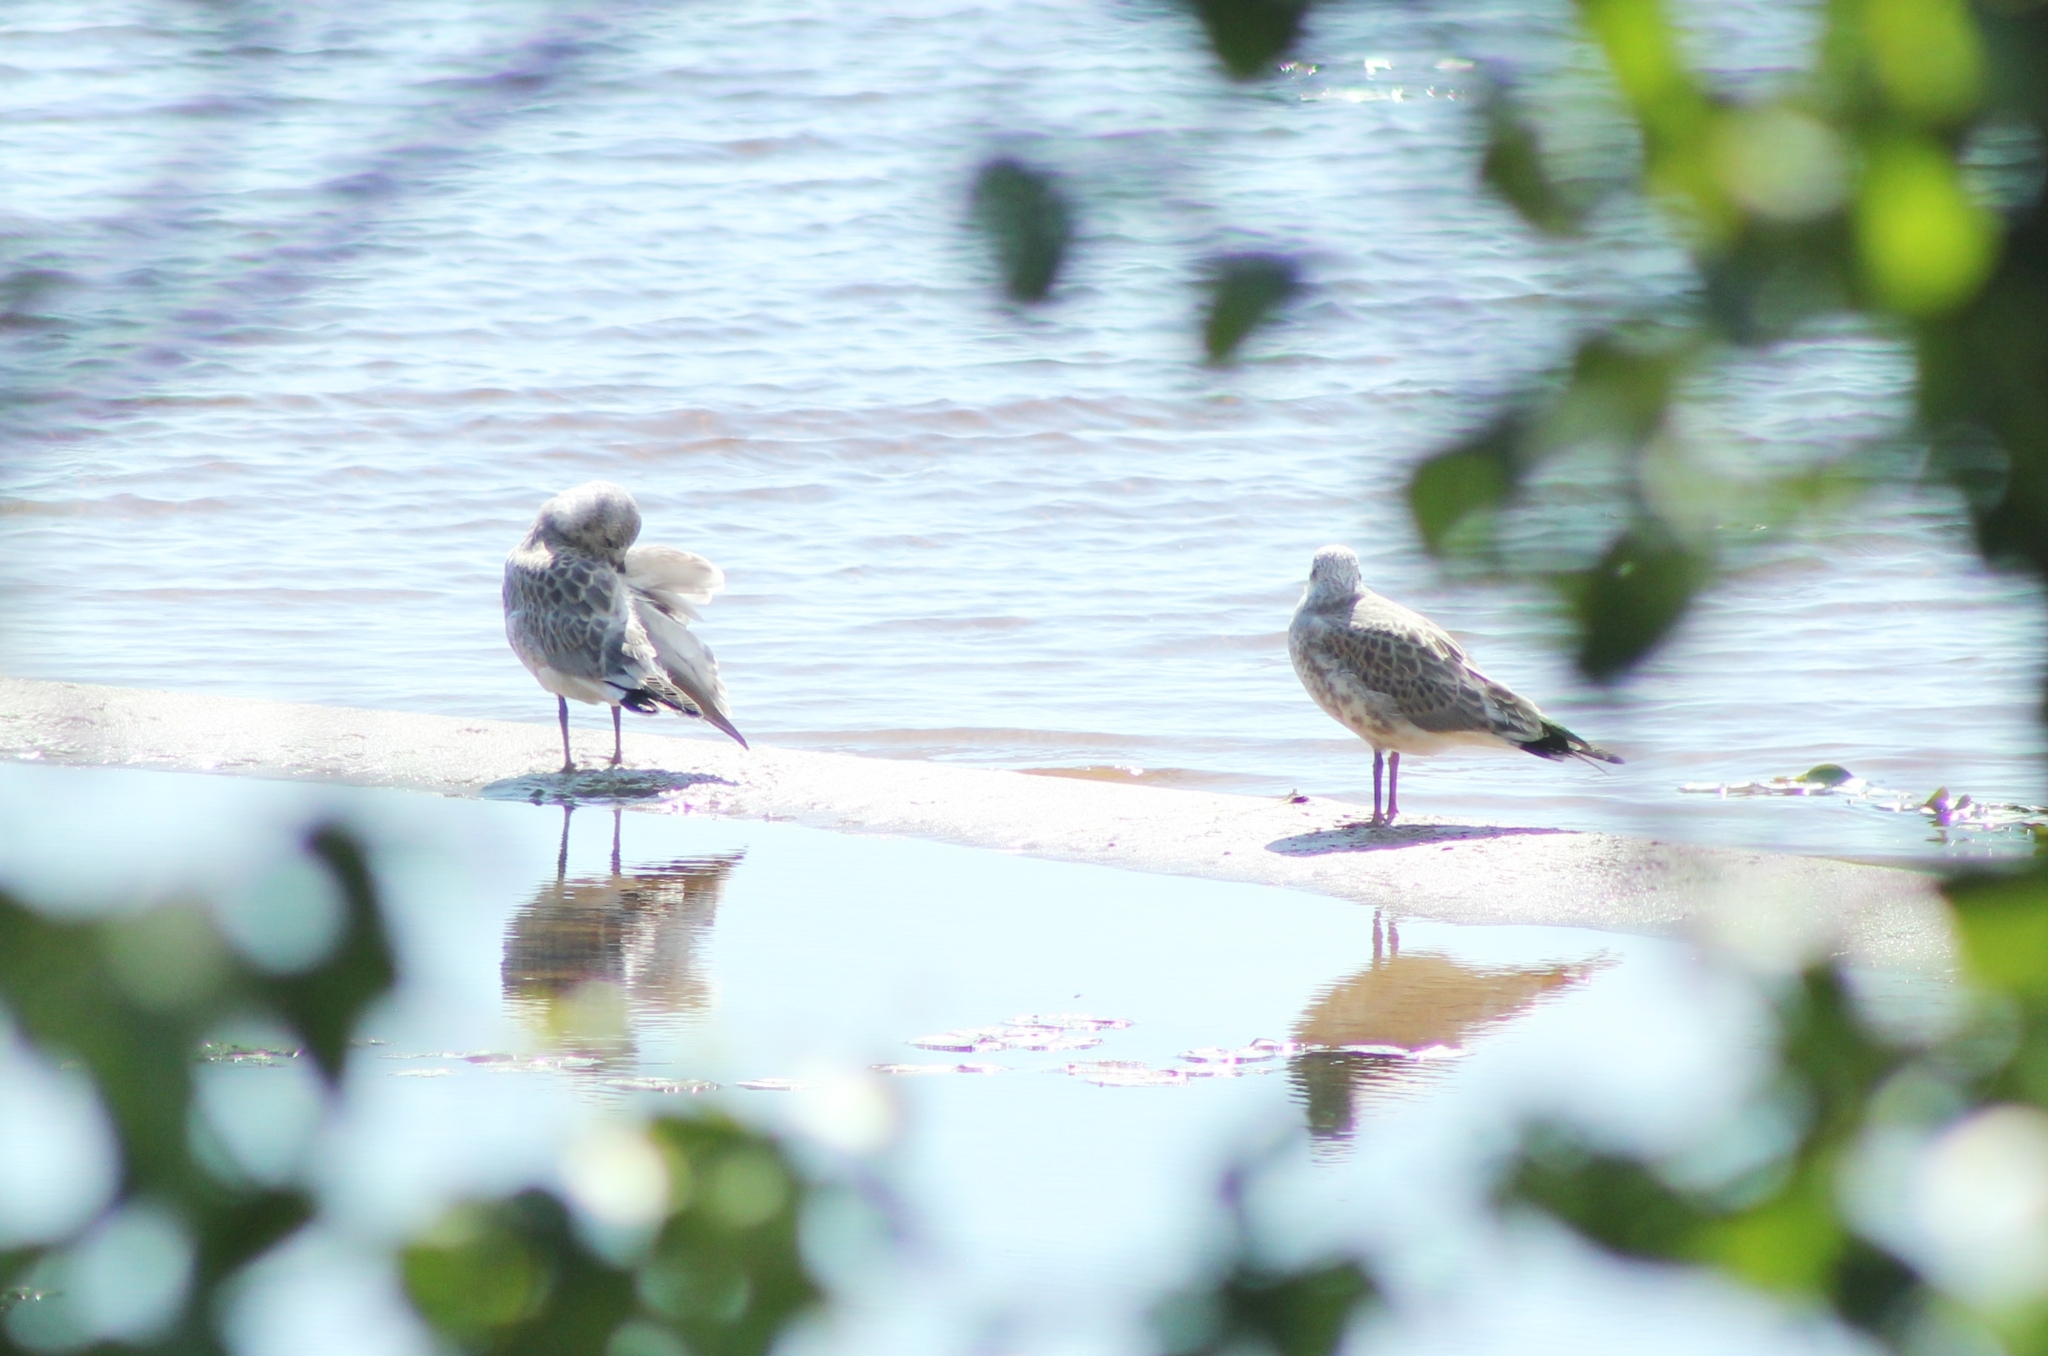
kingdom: Animalia
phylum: Chordata
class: Aves
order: Charadriiformes
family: Laridae
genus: Larus
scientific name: Larus canus
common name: Mew gull
